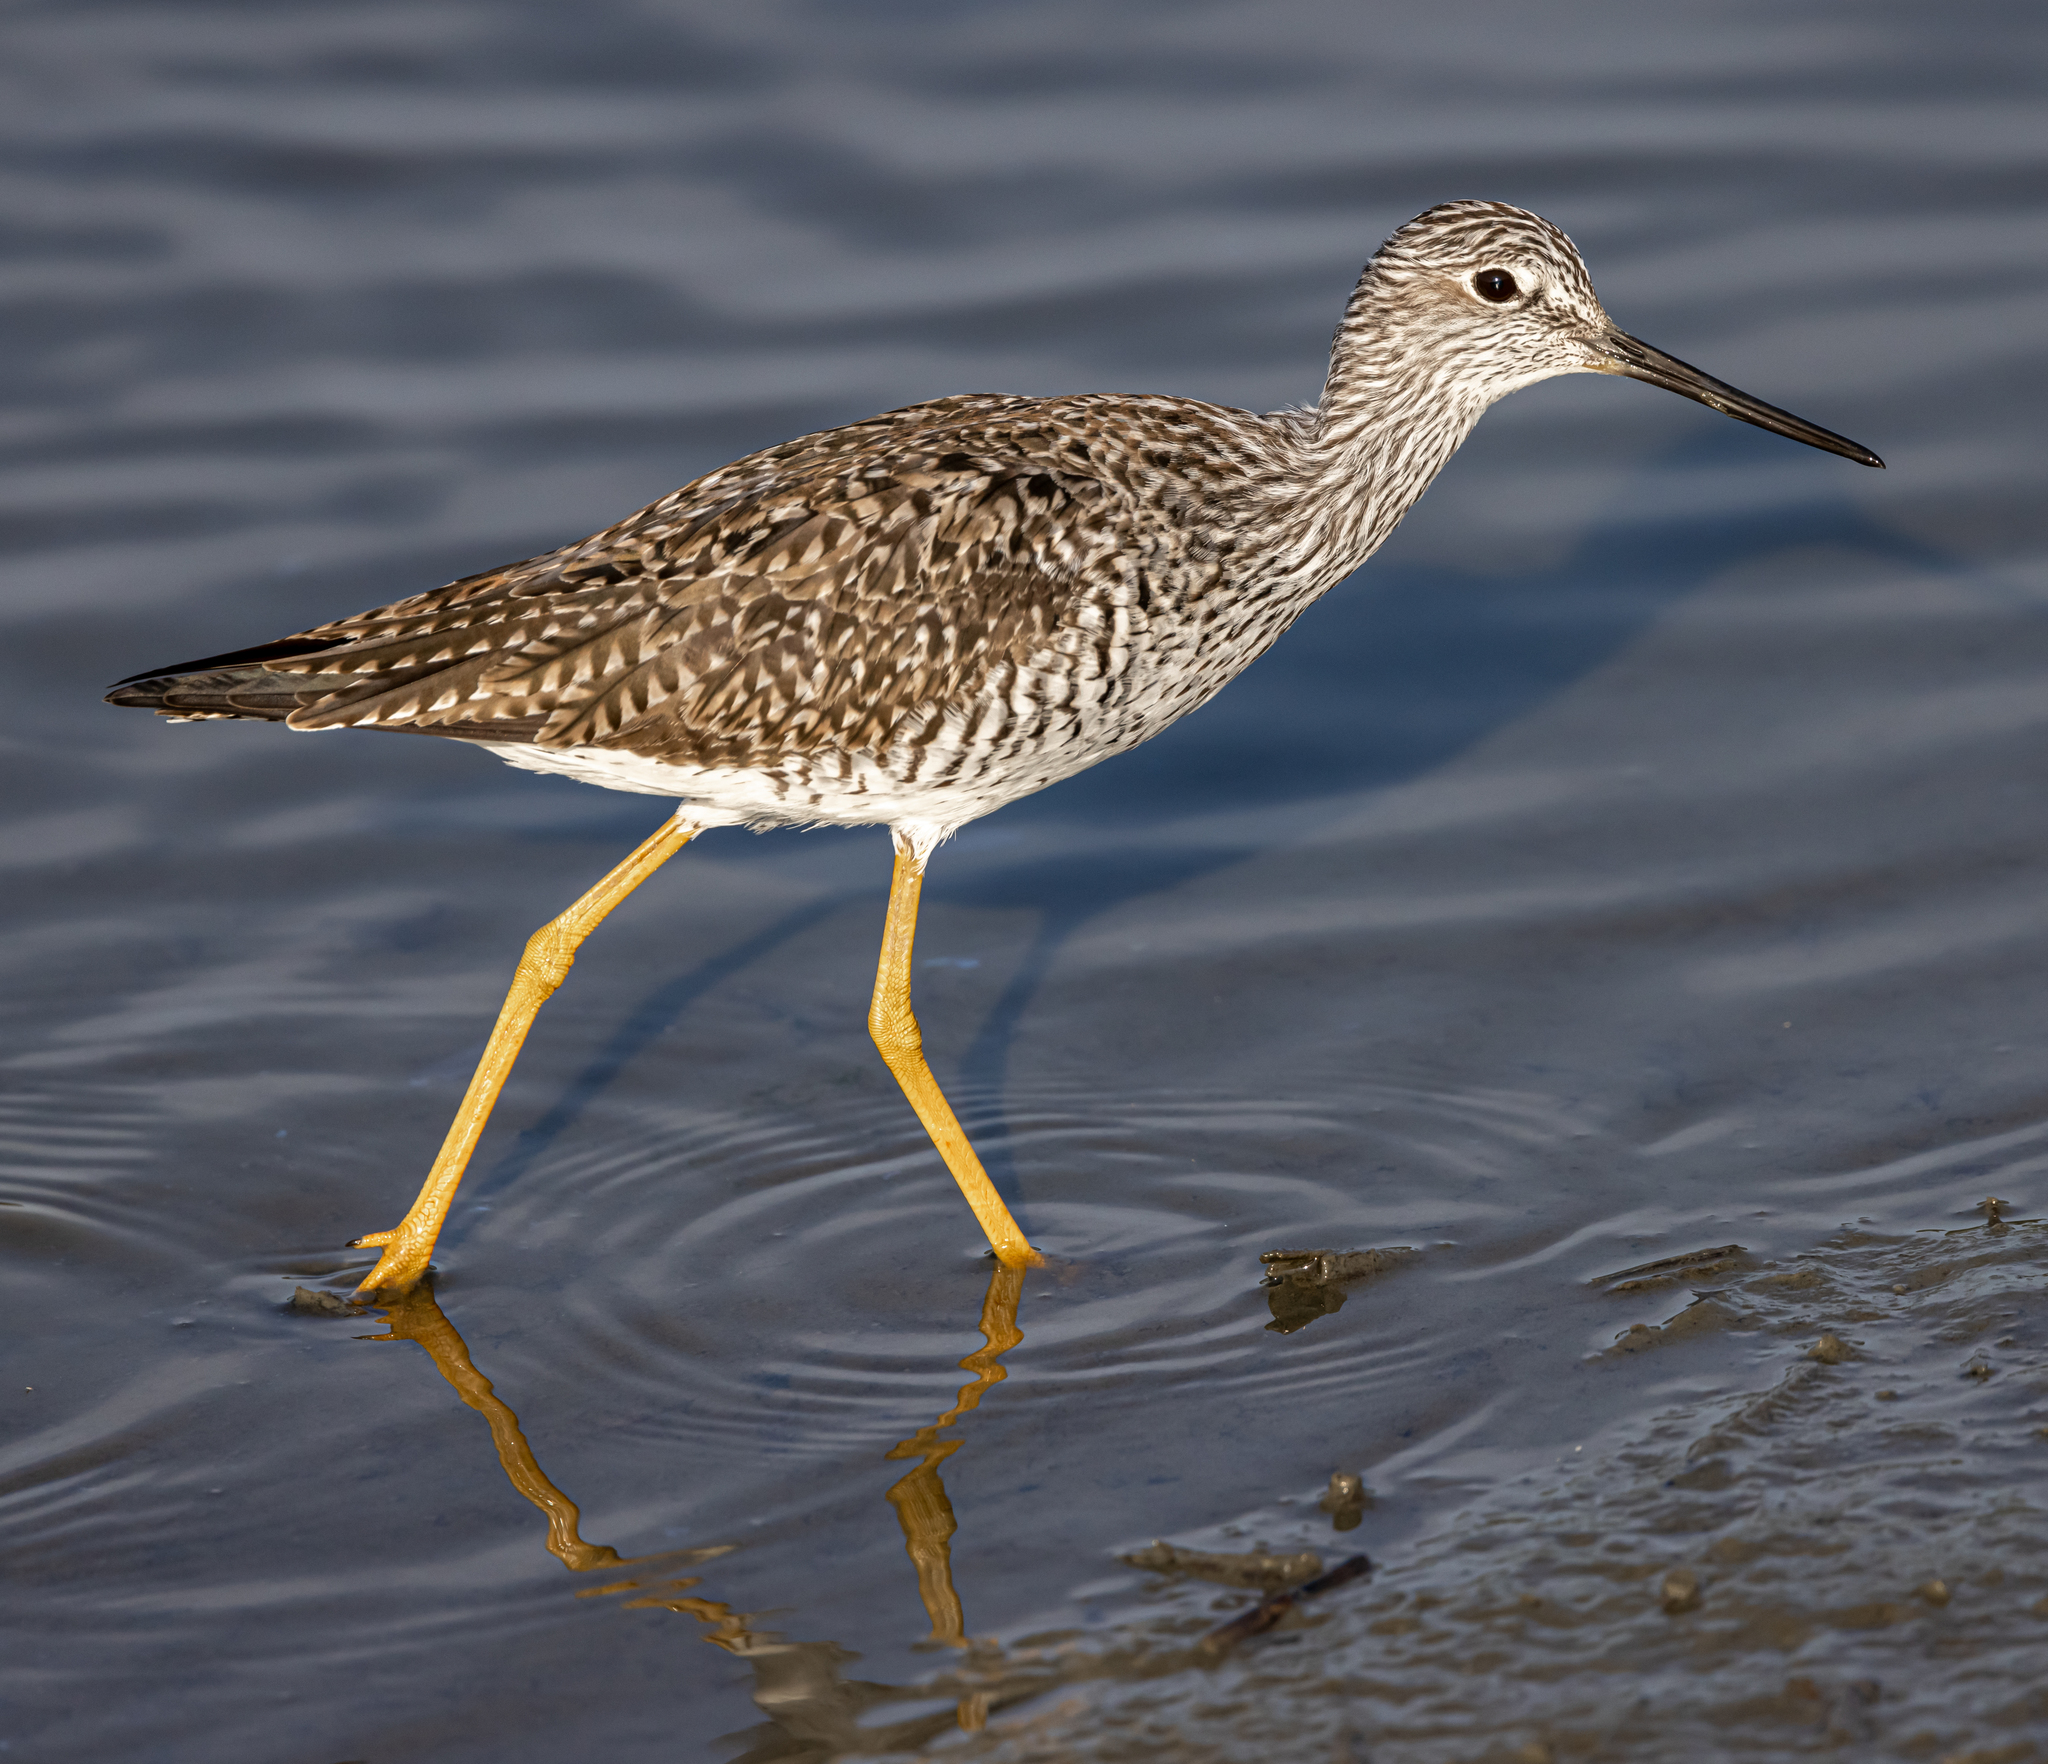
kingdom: Animalia
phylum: Chordata
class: Aves
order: Charadriiformes
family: Scolopacidae
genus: Tringa
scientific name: Tringa melanoleuca
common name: Greater yellowlegs
